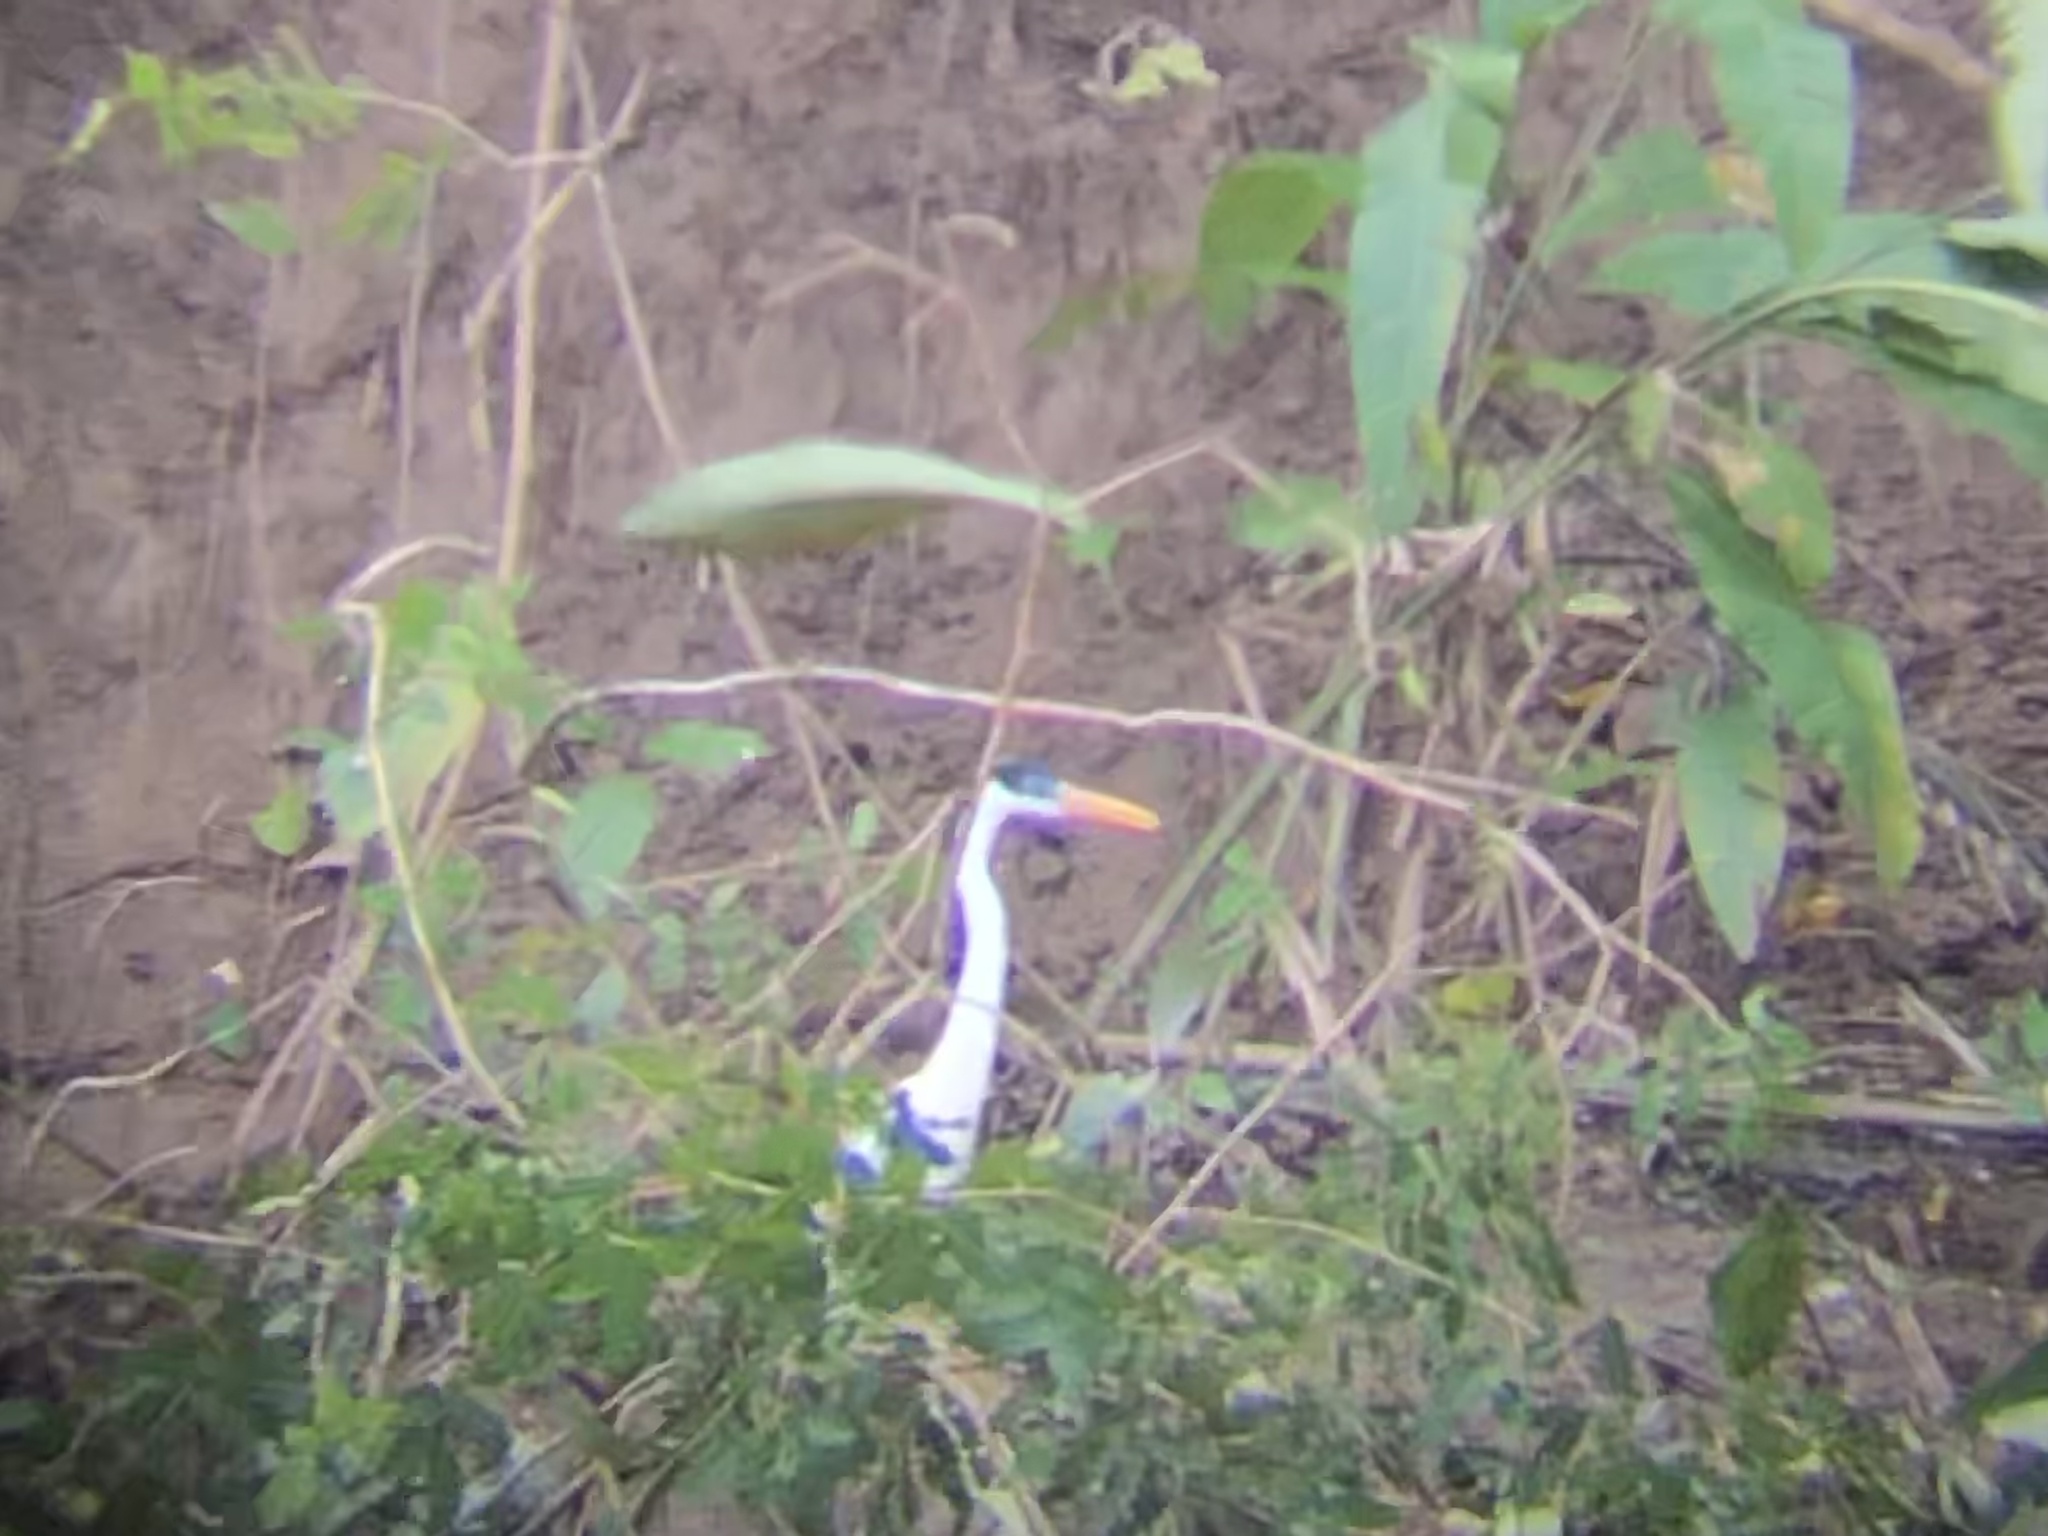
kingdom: Animalia
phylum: Chordata
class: Aves
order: Pelecaniformes
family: Ardeidae
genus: Ardea
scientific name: Ardea cocoi
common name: Cocoi heron
